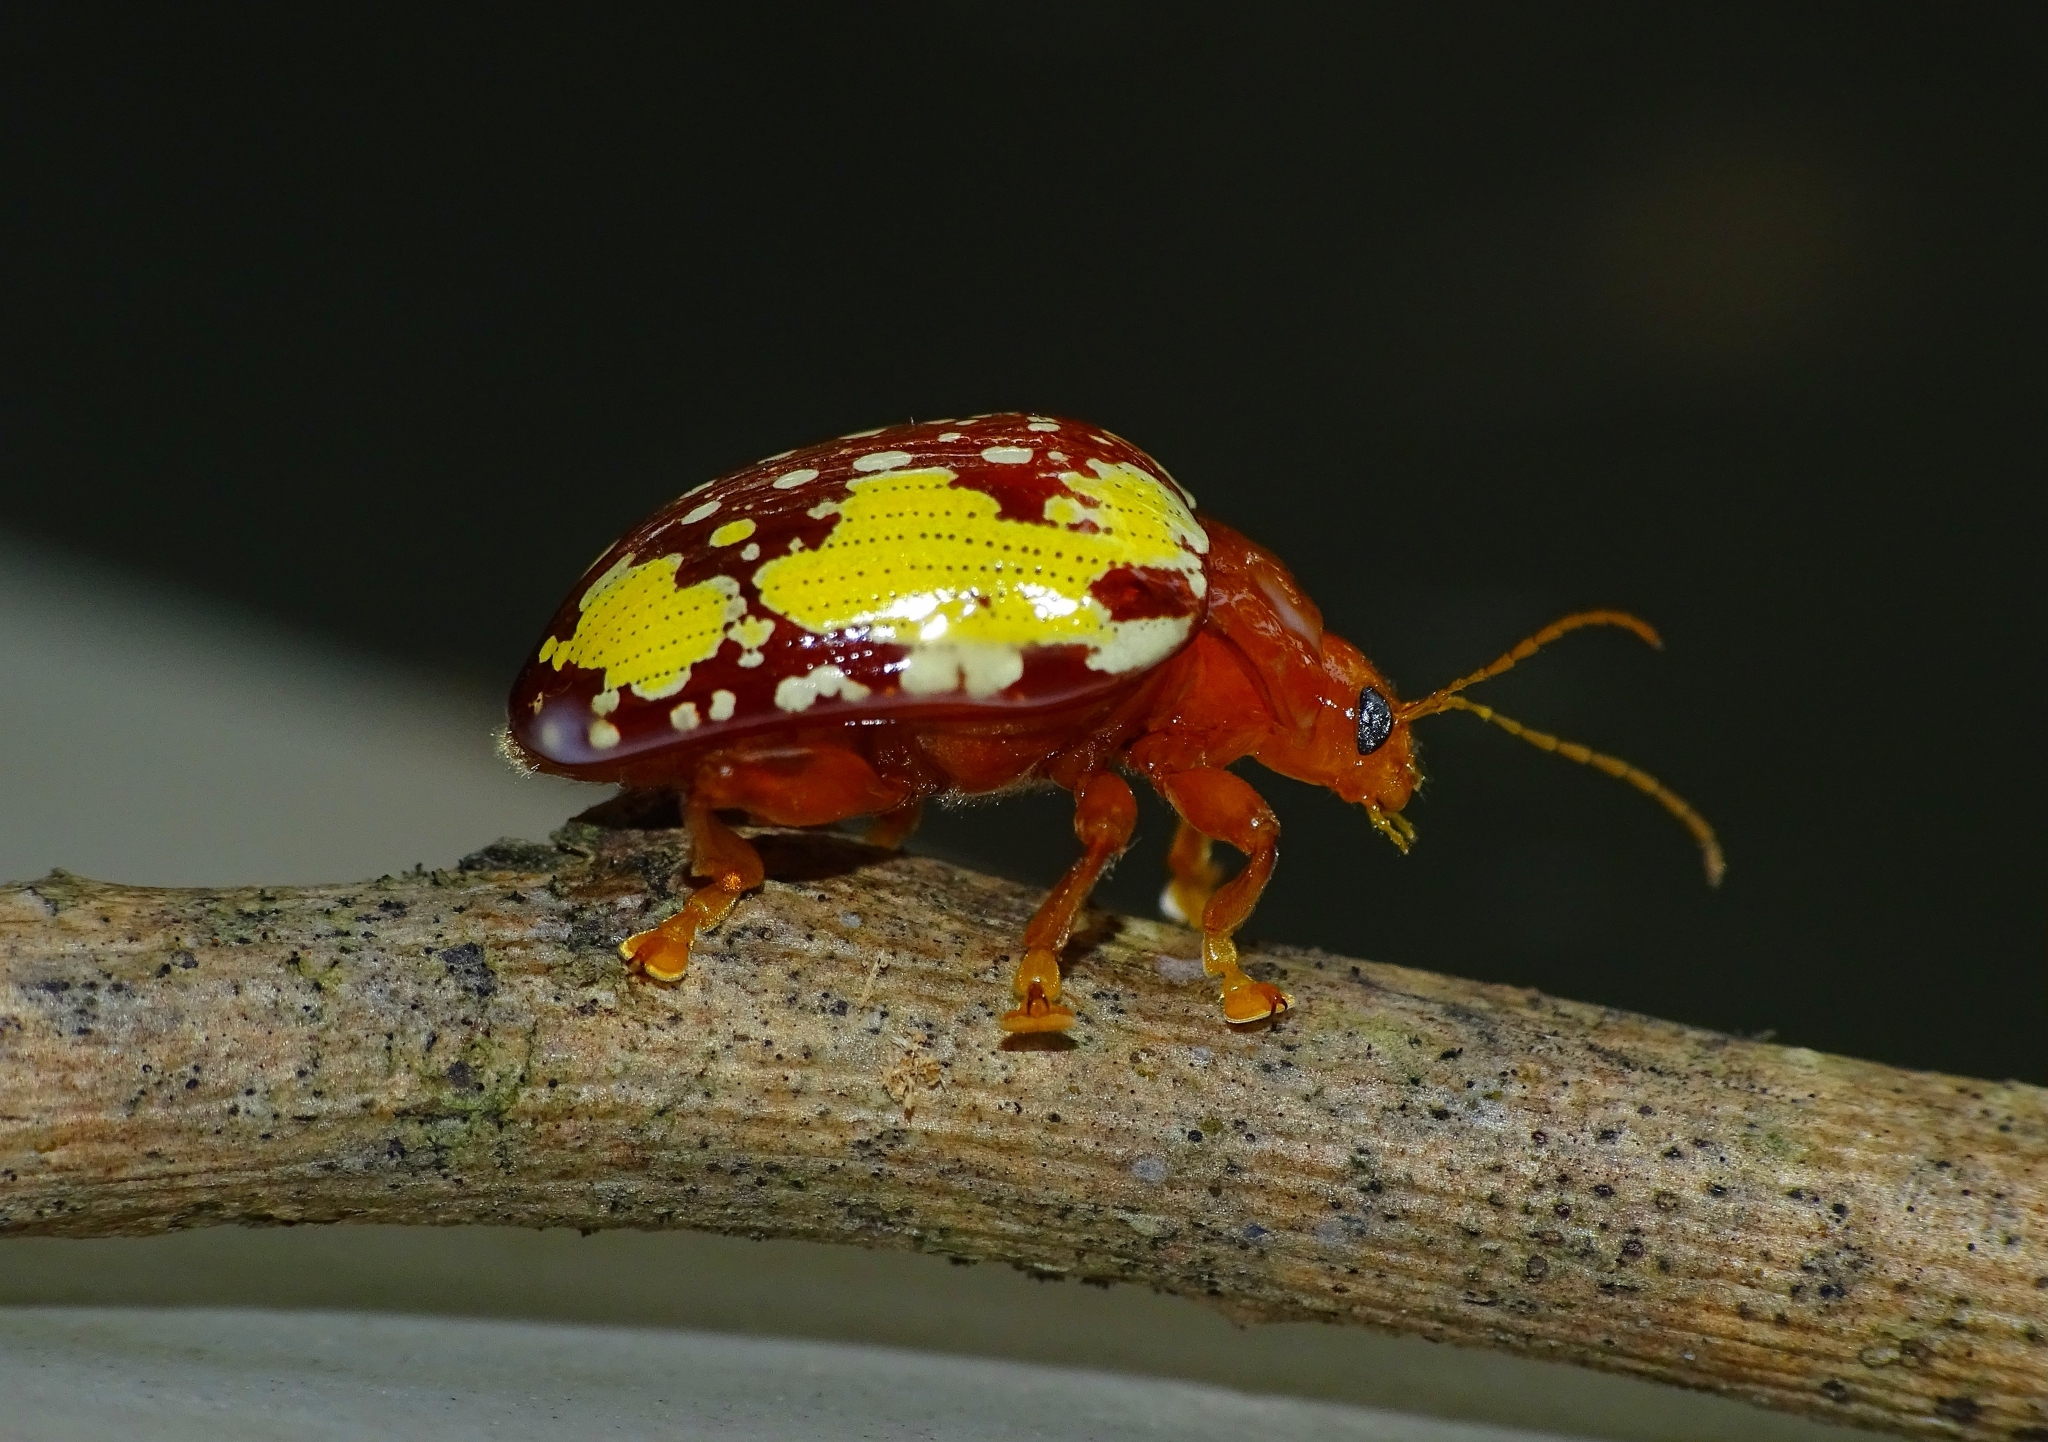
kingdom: Animalia
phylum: Arthropoda
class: Insecta
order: Coleoptera
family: Chrysomelidae
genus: Podontia
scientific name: Podontia
